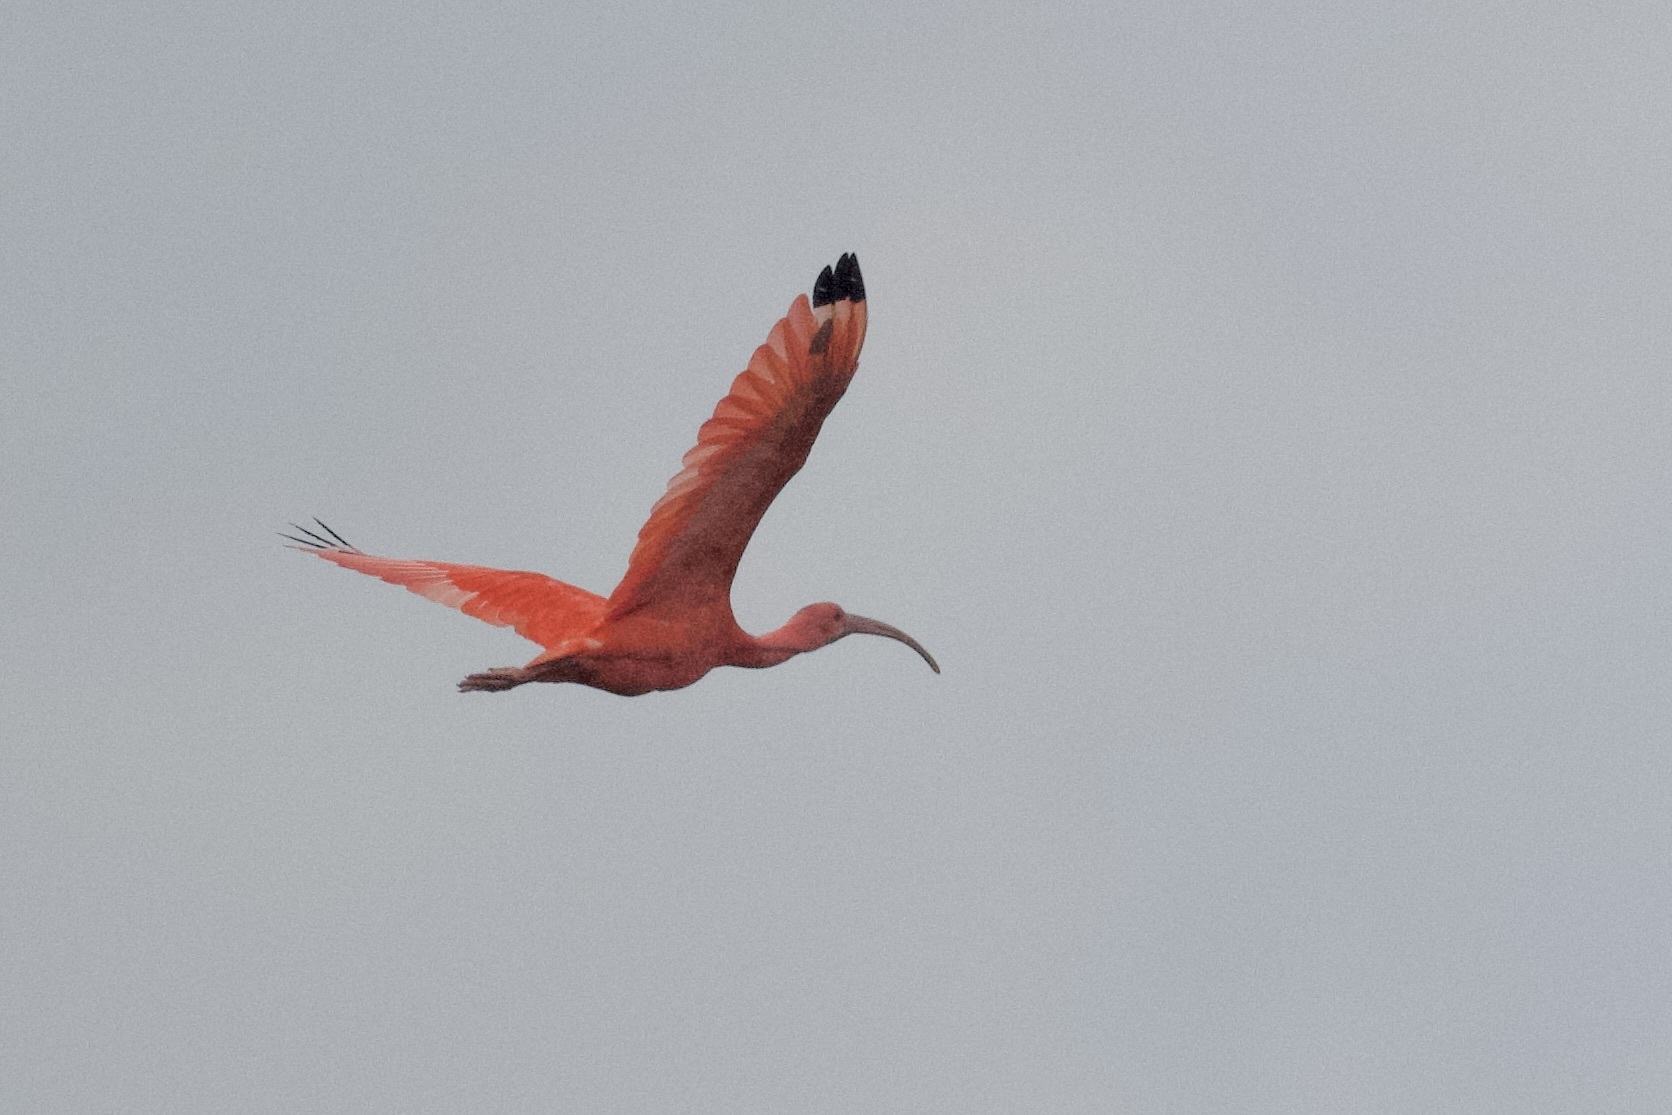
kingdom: Animalia
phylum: Chordata
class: Aves
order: Pelecaniformes
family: Threskiornithidae
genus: Eudocimus
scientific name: Eudocimus ruber
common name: Scarlet ibis
